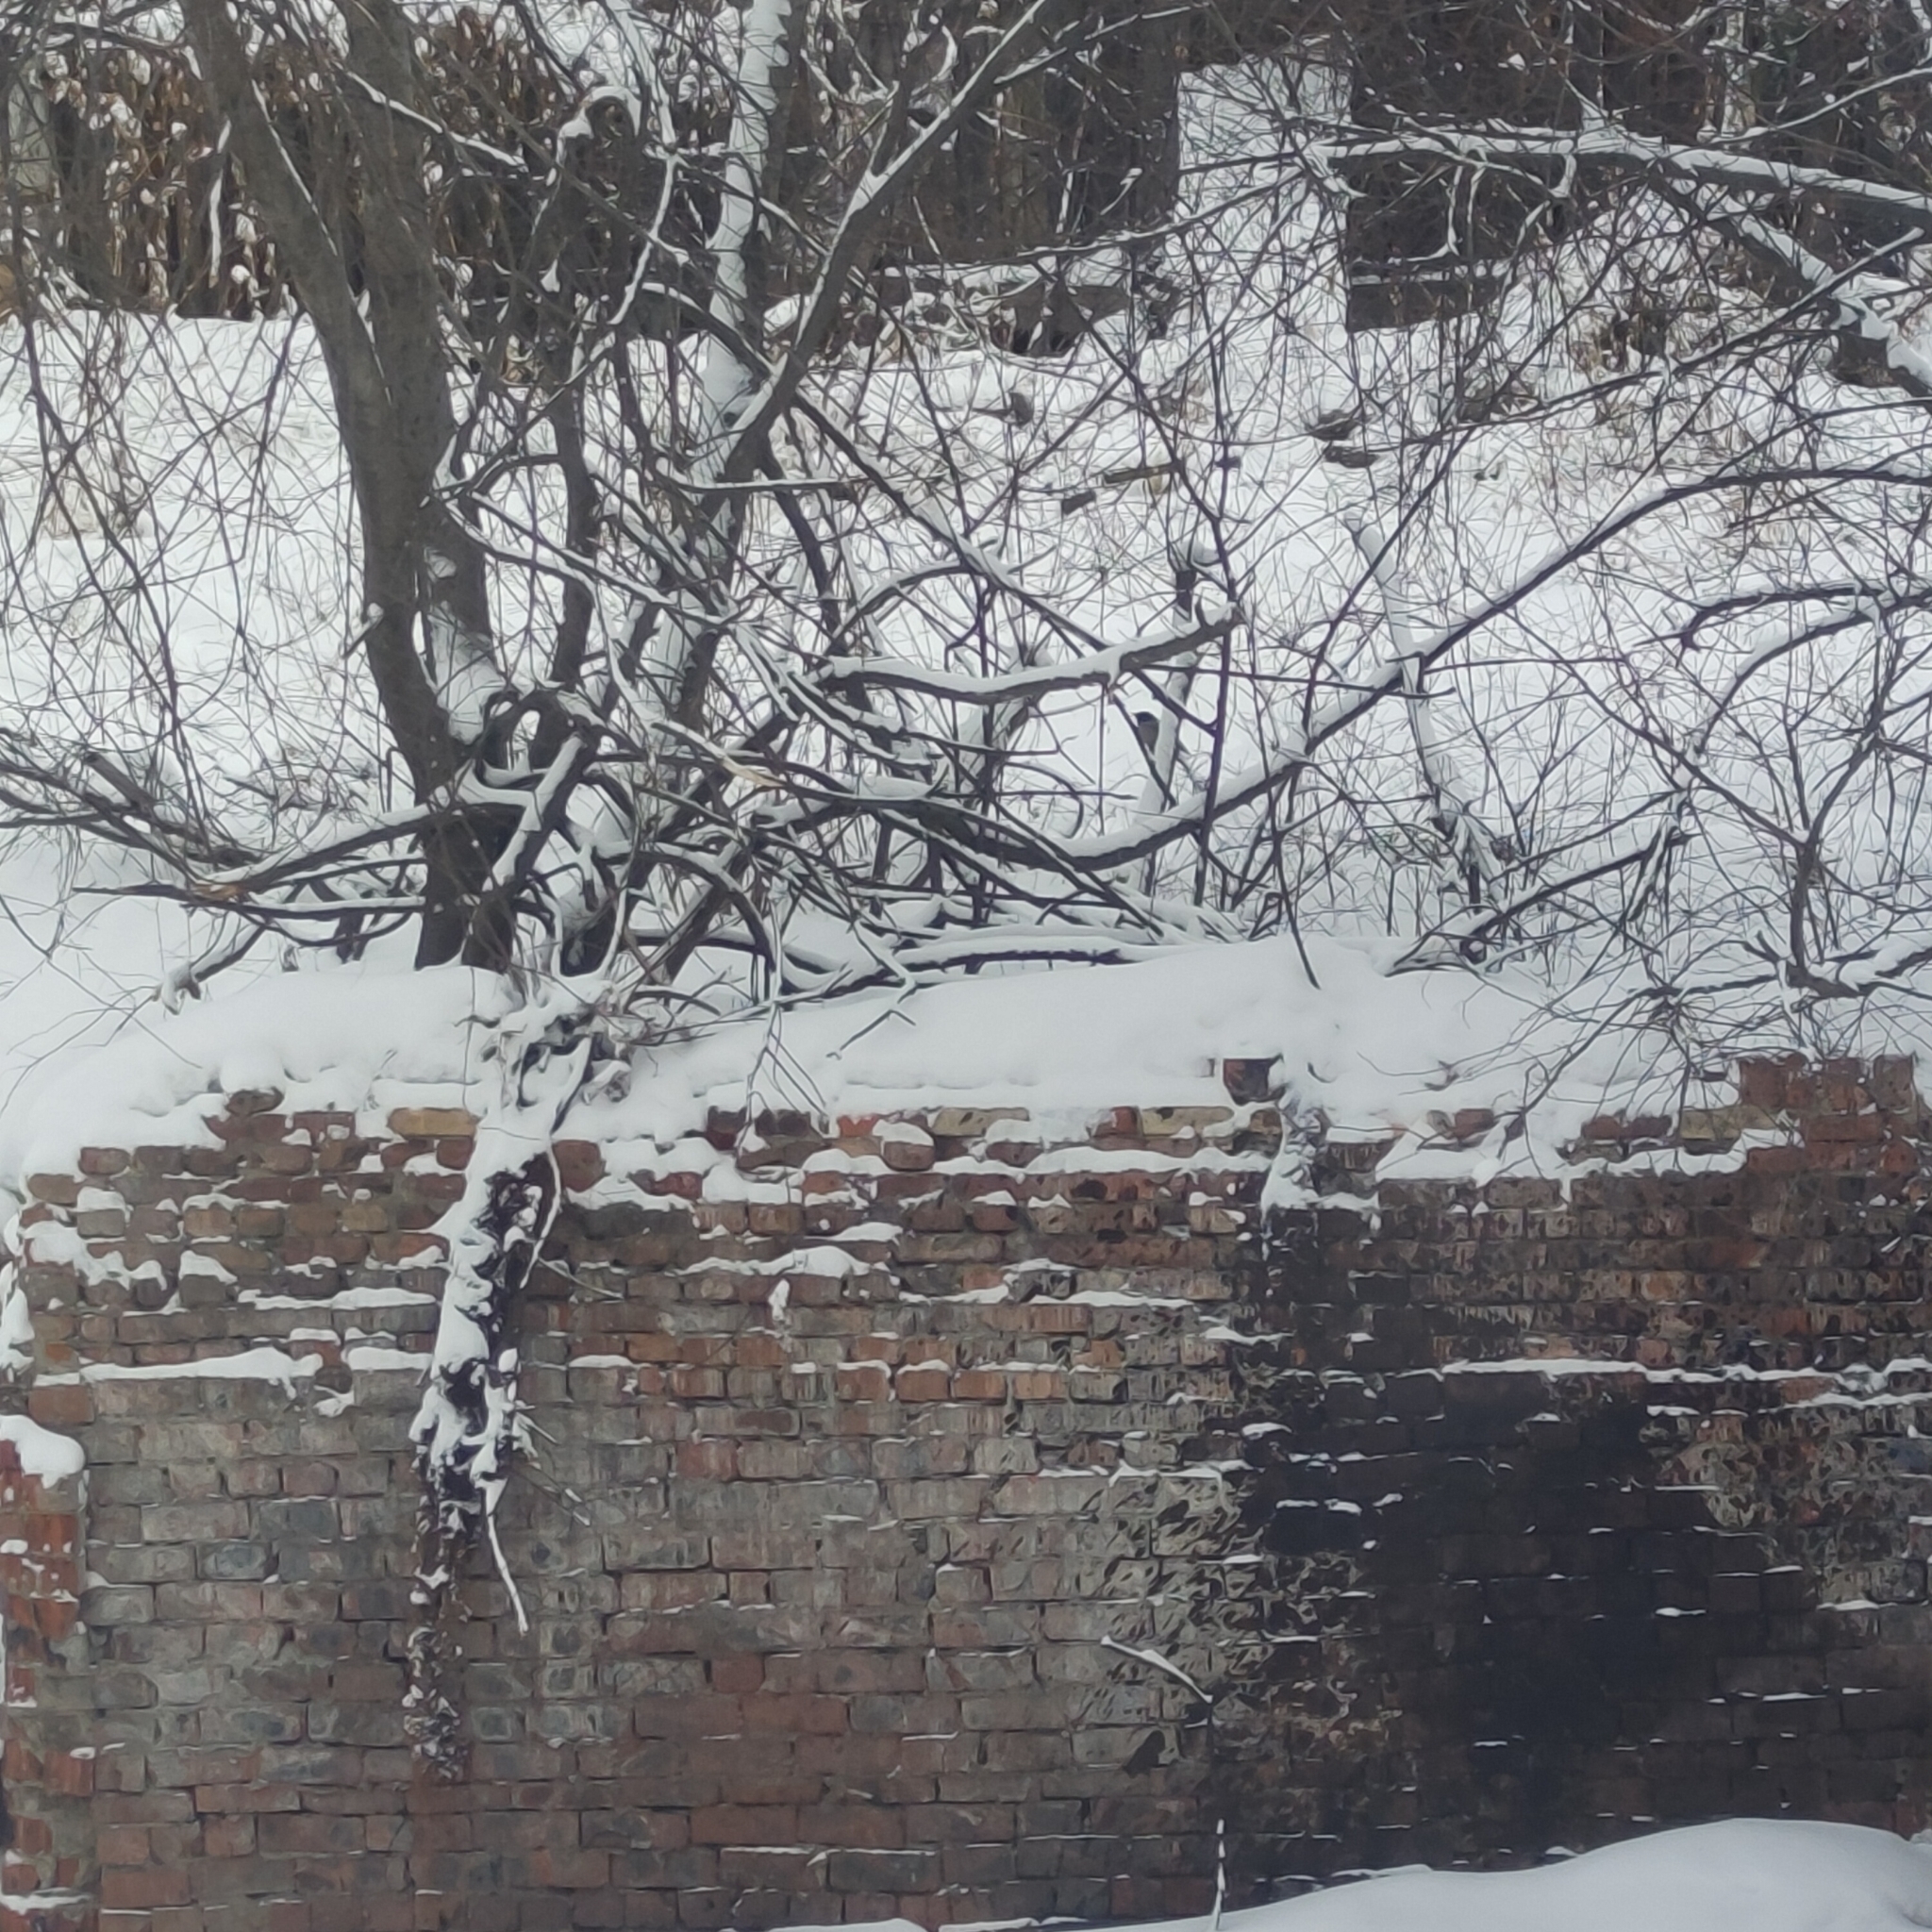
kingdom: Animalia
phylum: Chordata
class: Aves
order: Passeriformes
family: Corvidae
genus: Cyanopica
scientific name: Cyanopica cyanus
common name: Azure-winged magpie
